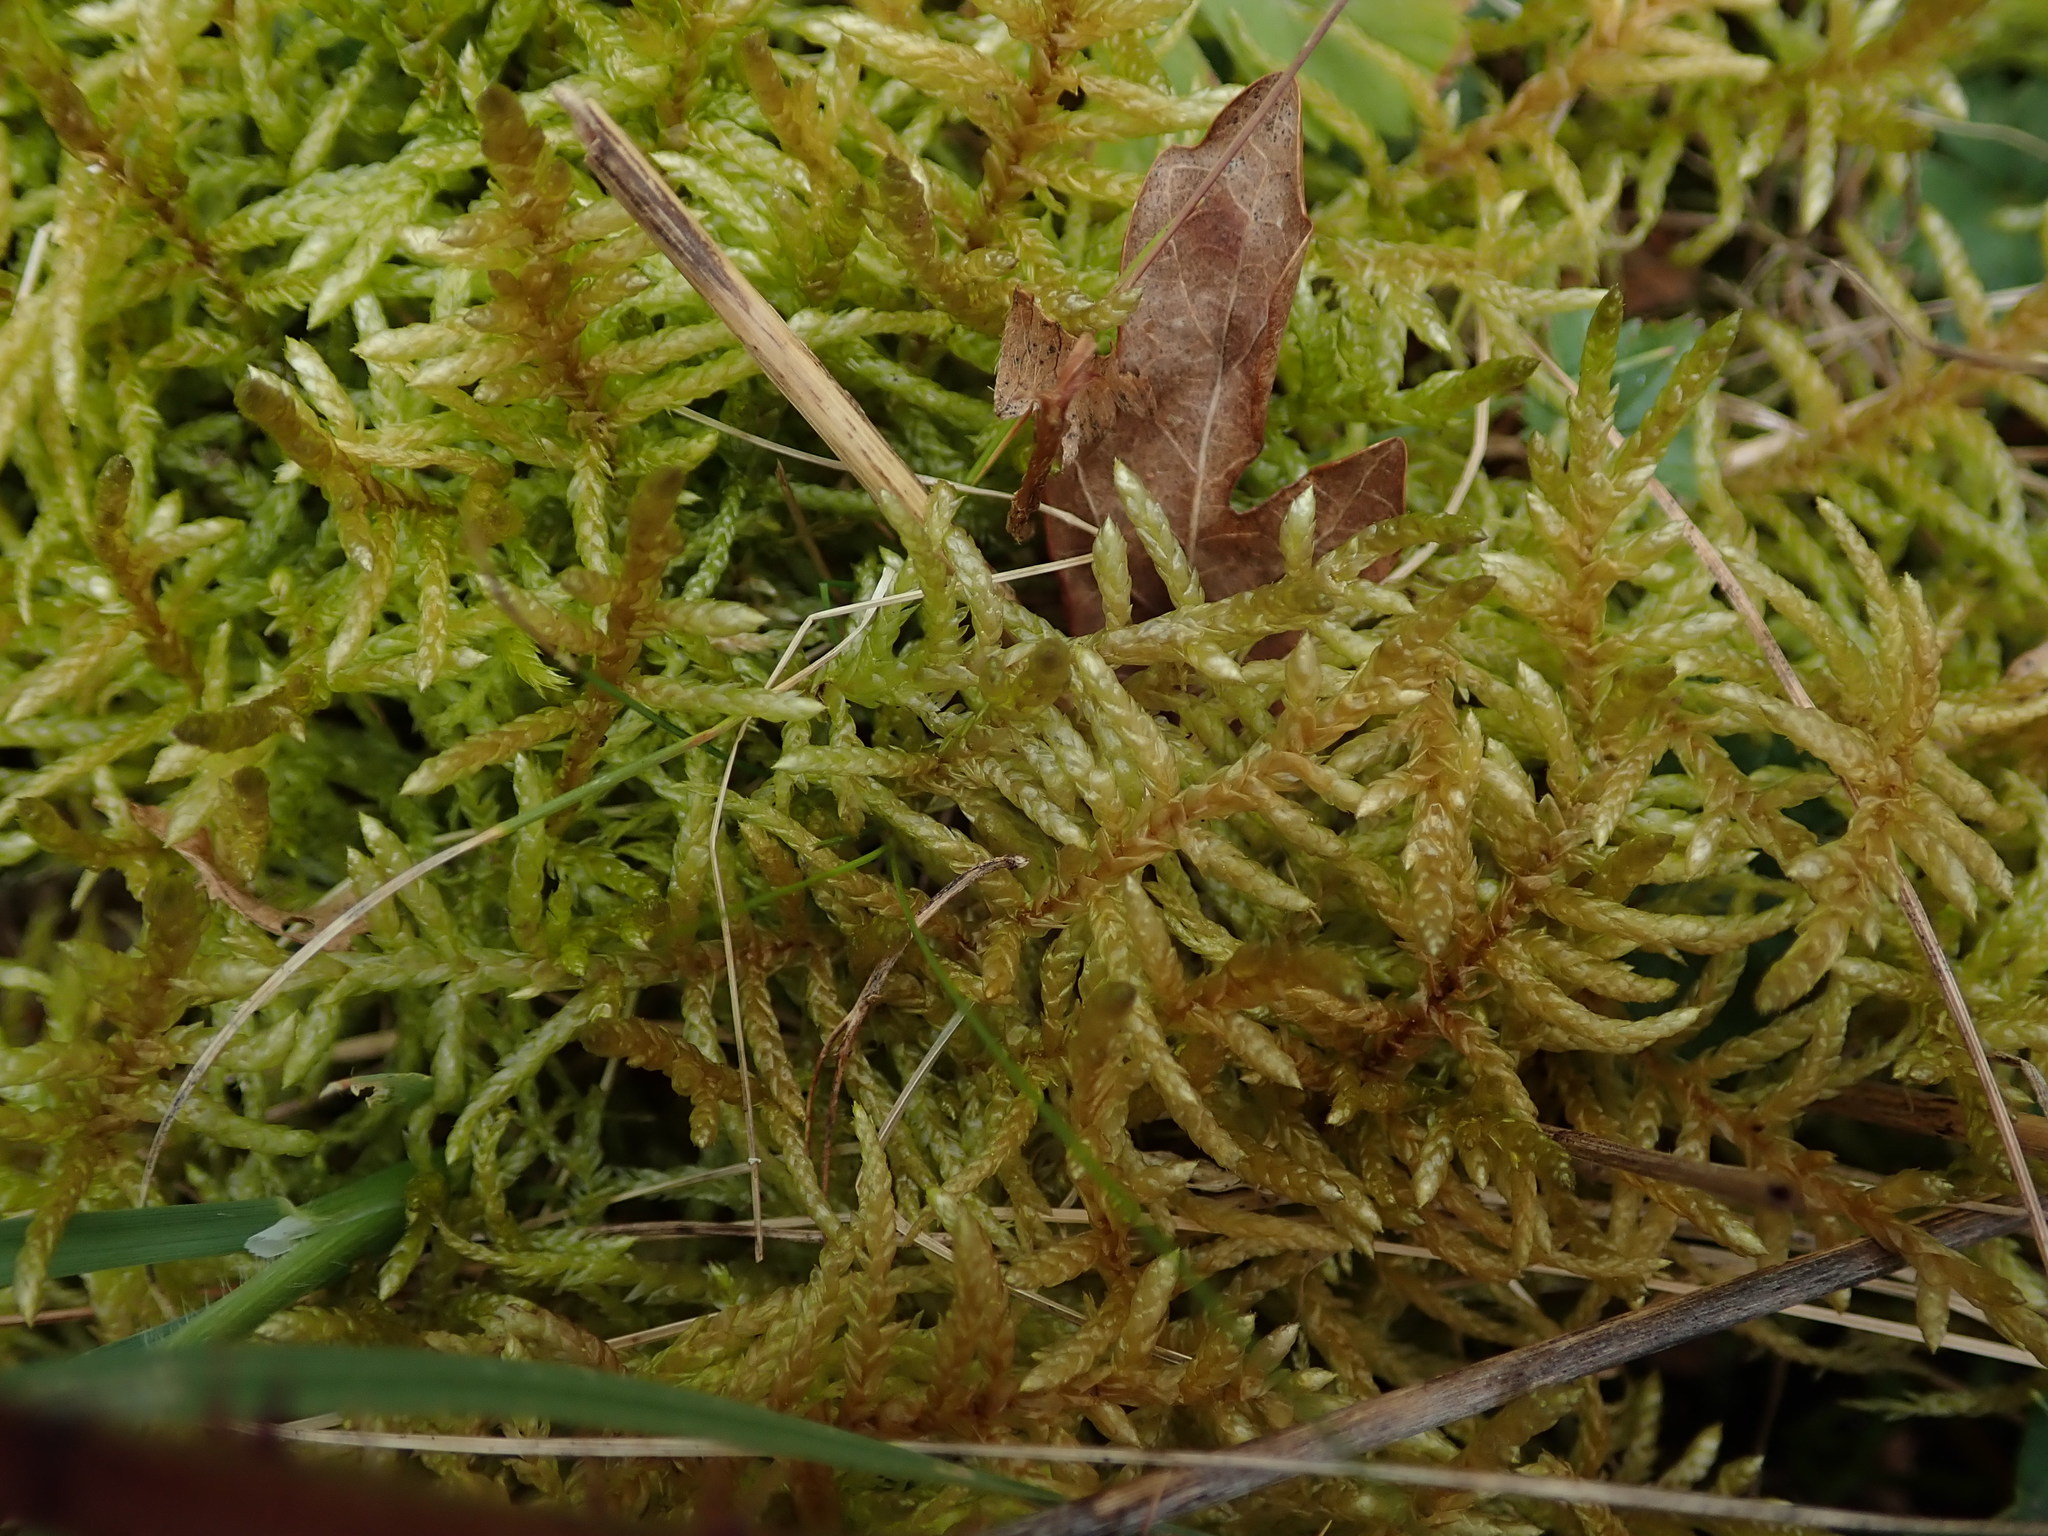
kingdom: Plantae
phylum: Bryophyta
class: Bryopsida
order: Hypnales
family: Brachytheciaceae
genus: Pseudoscleropodium
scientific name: Pseudoscleropodium purum
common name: Neat feather-moss
